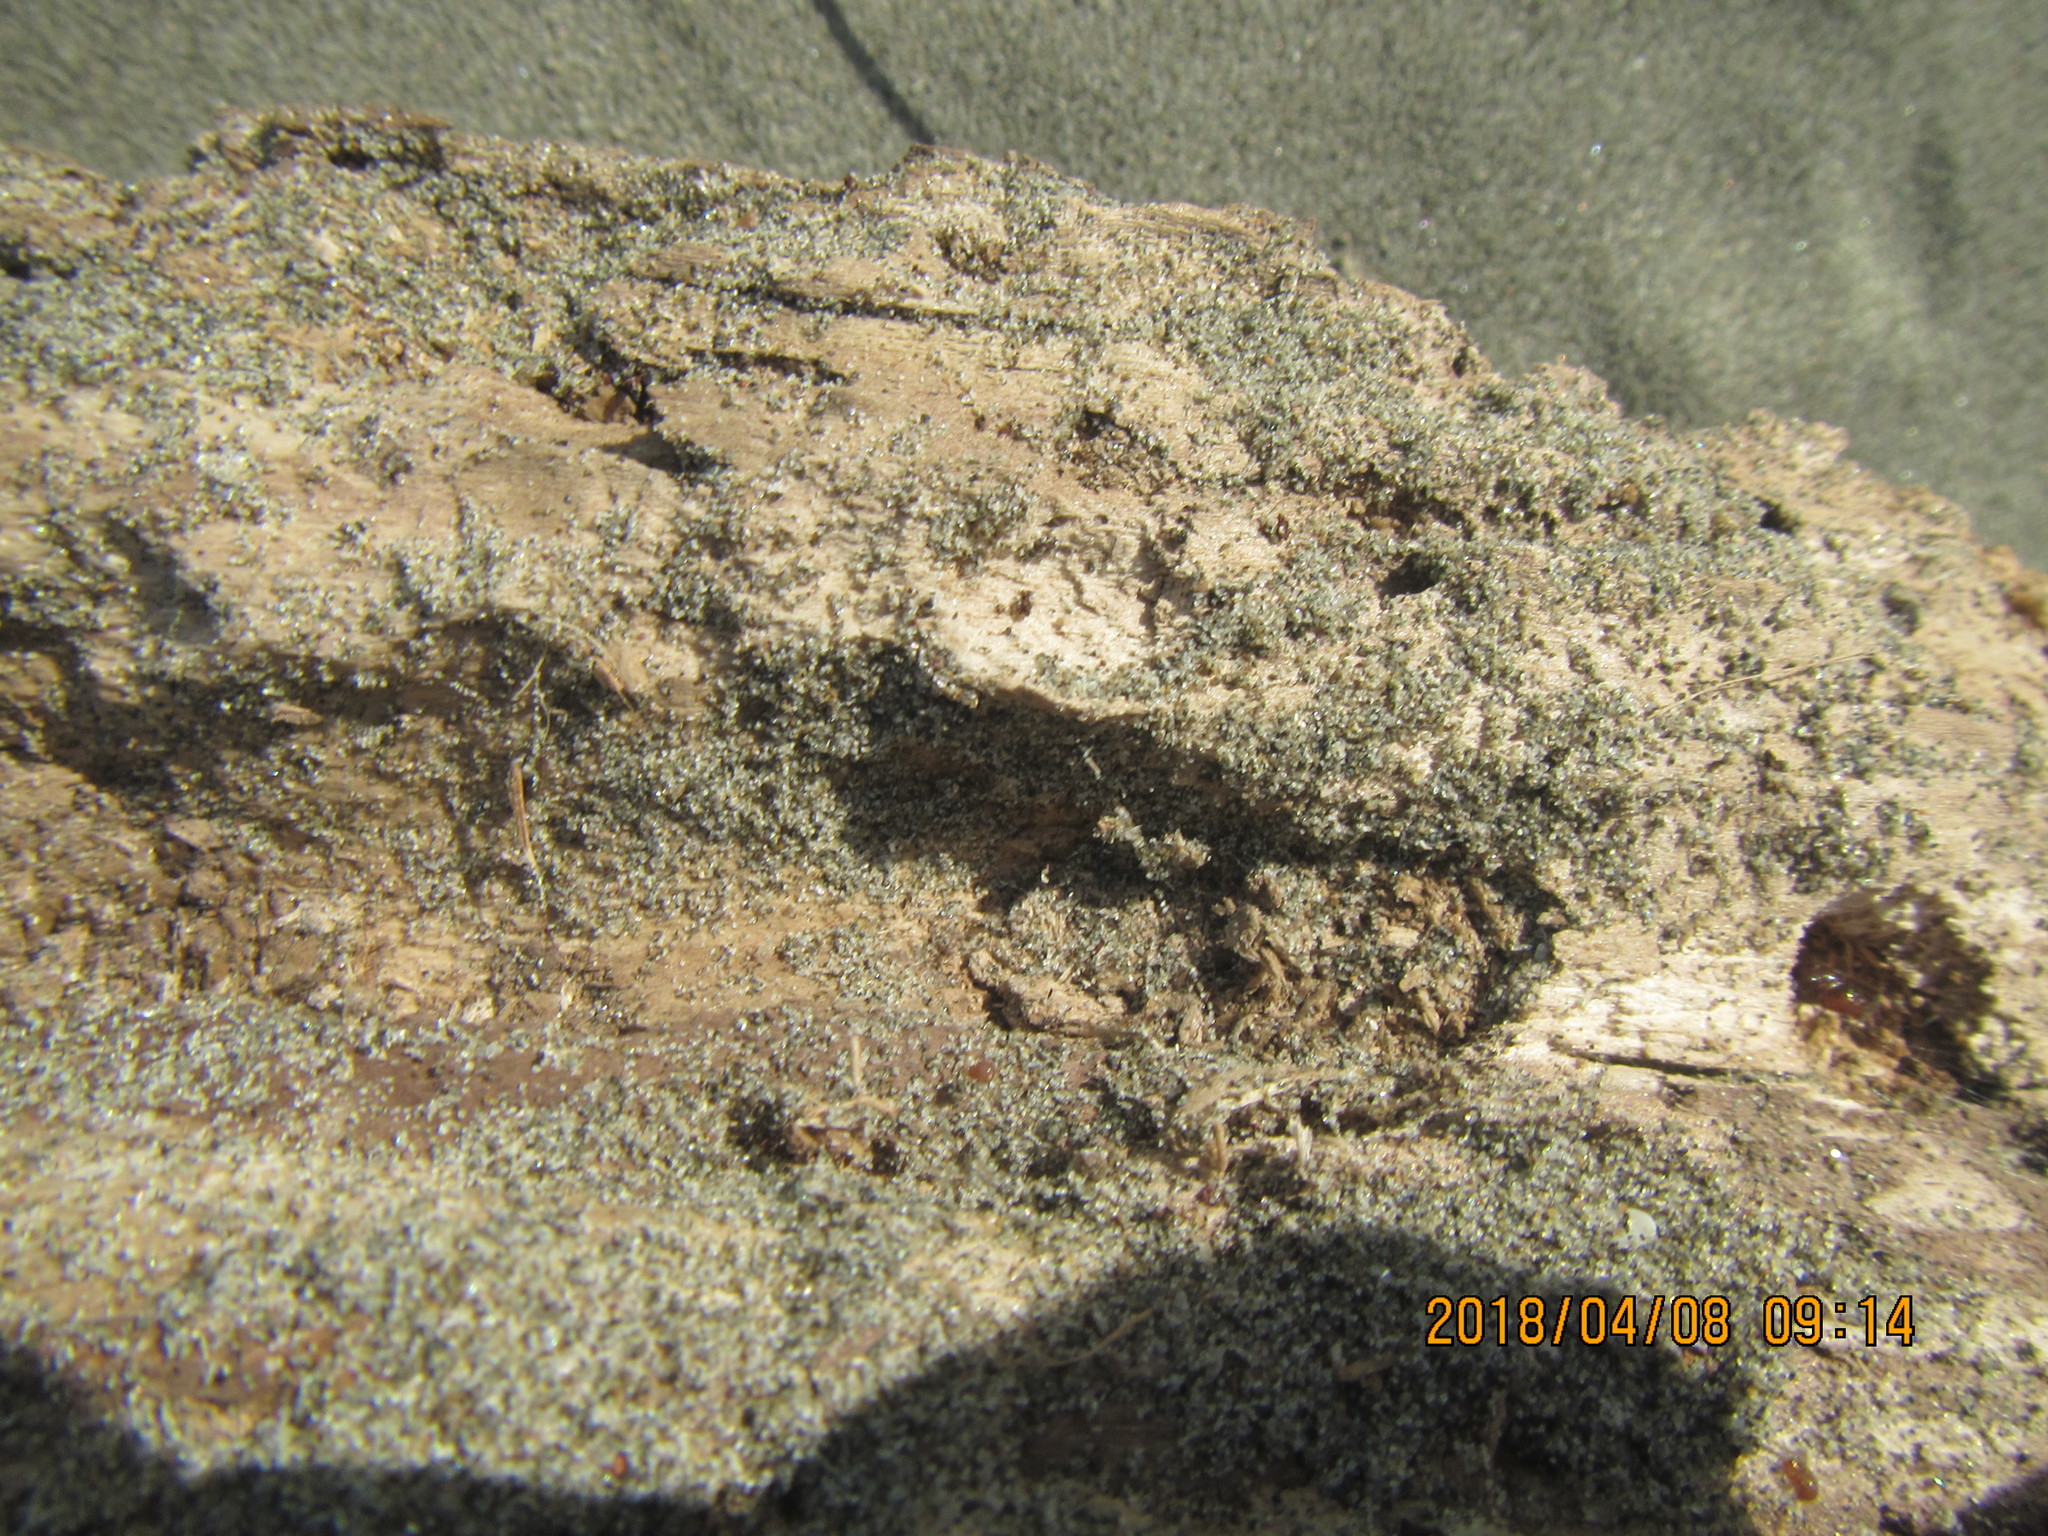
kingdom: Animalia
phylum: Arthropoda
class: Arachnida
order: Araneae
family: Theridiidae
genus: Steatoda
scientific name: Steatoda capensis
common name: Cobweb weaver
